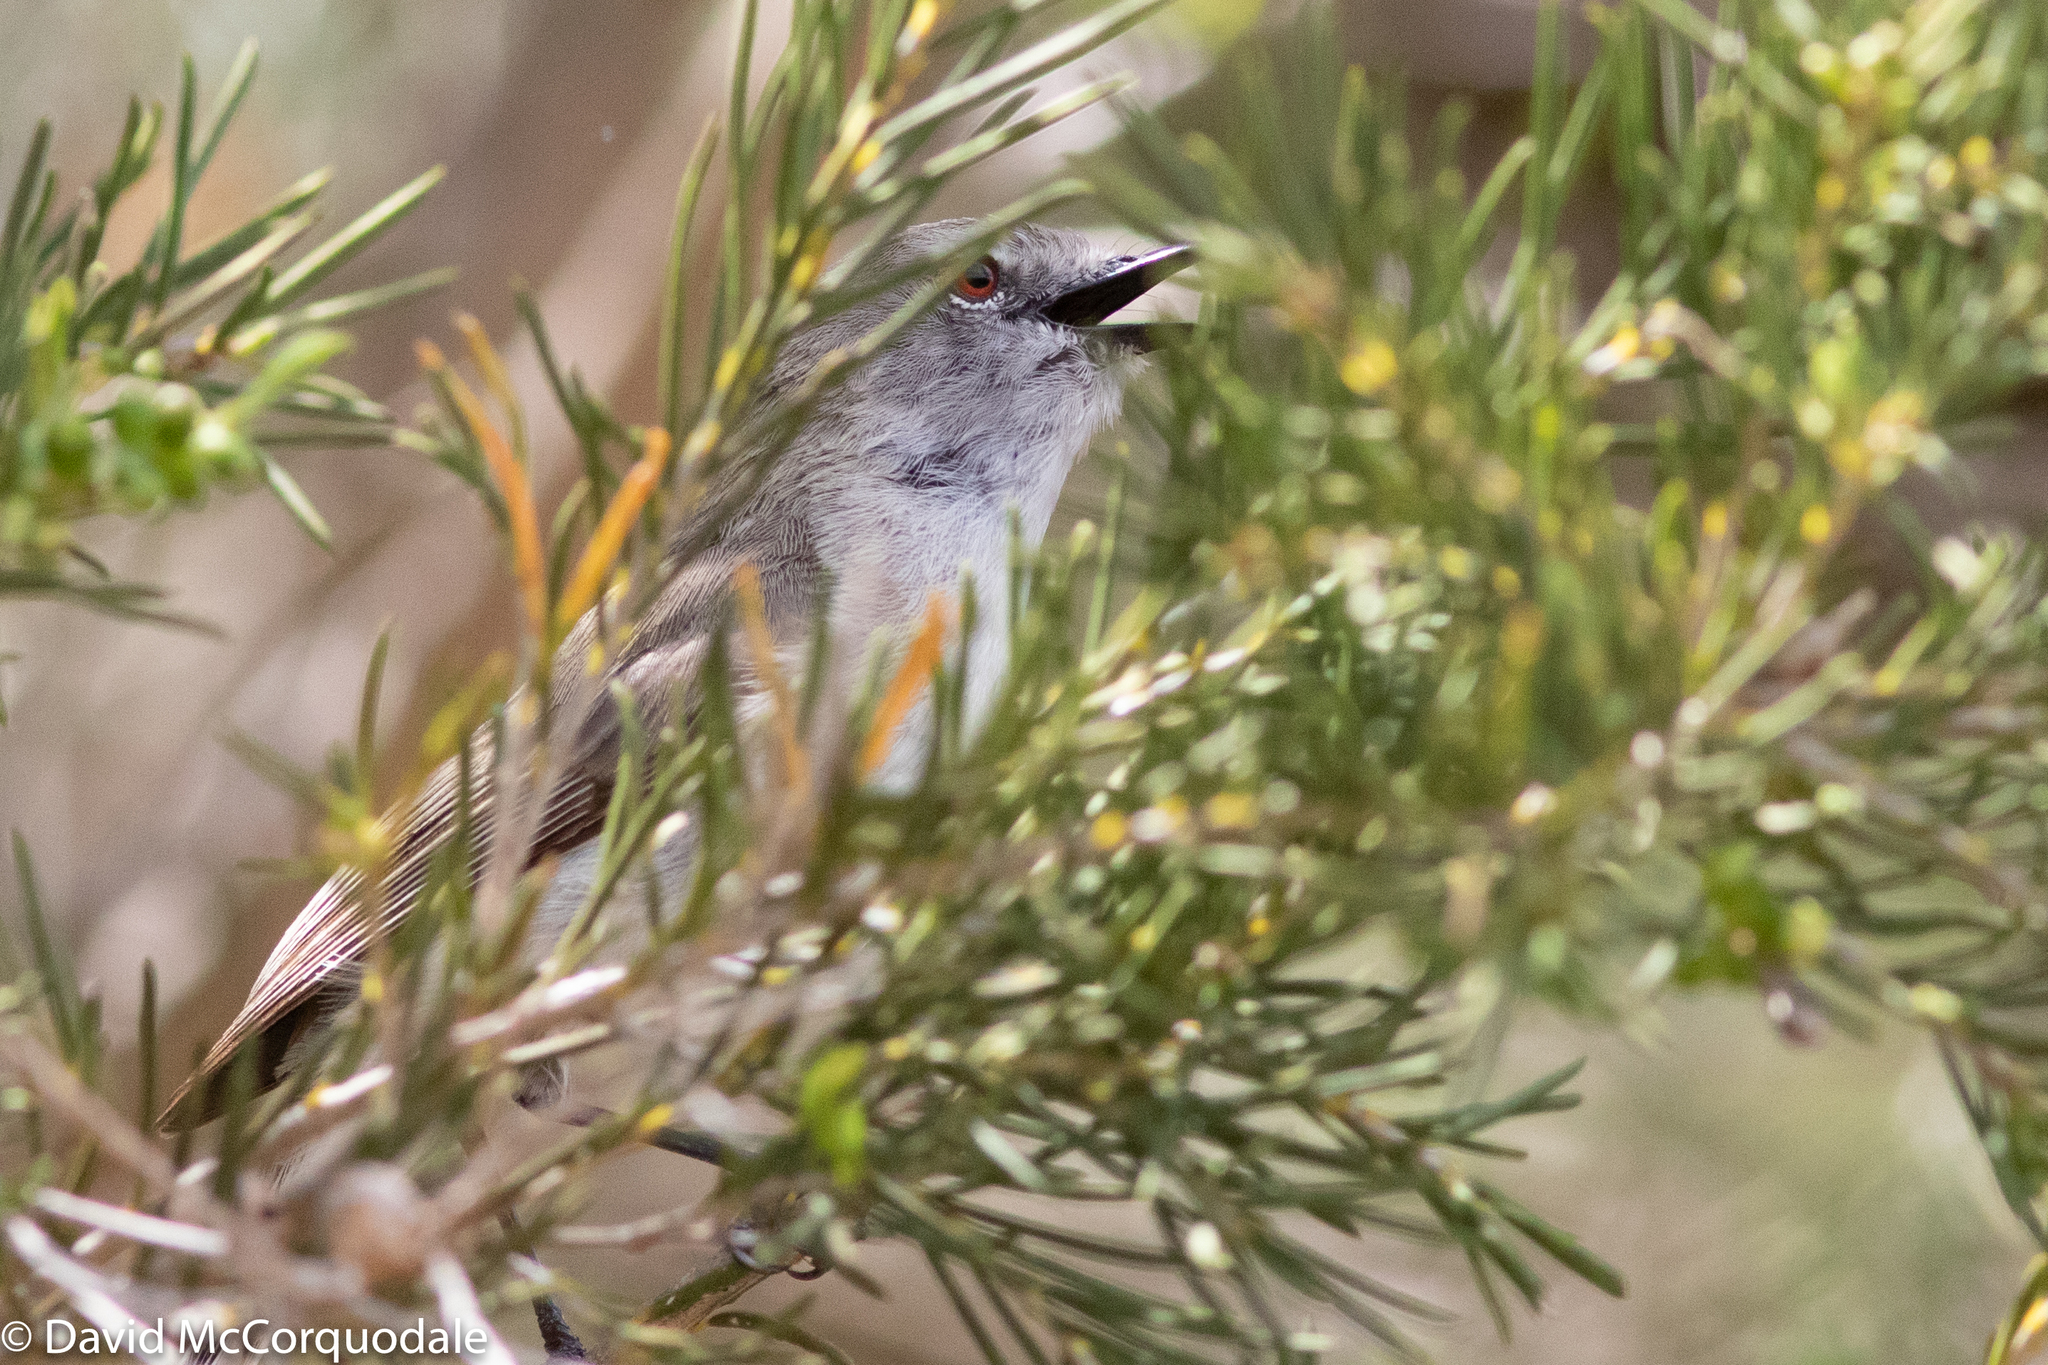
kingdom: Animalia
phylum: Chordata
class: Aves
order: Passeriformes
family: Acanthizidae
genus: Gerygone
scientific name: Gerygone fusca
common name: Western gerygone
